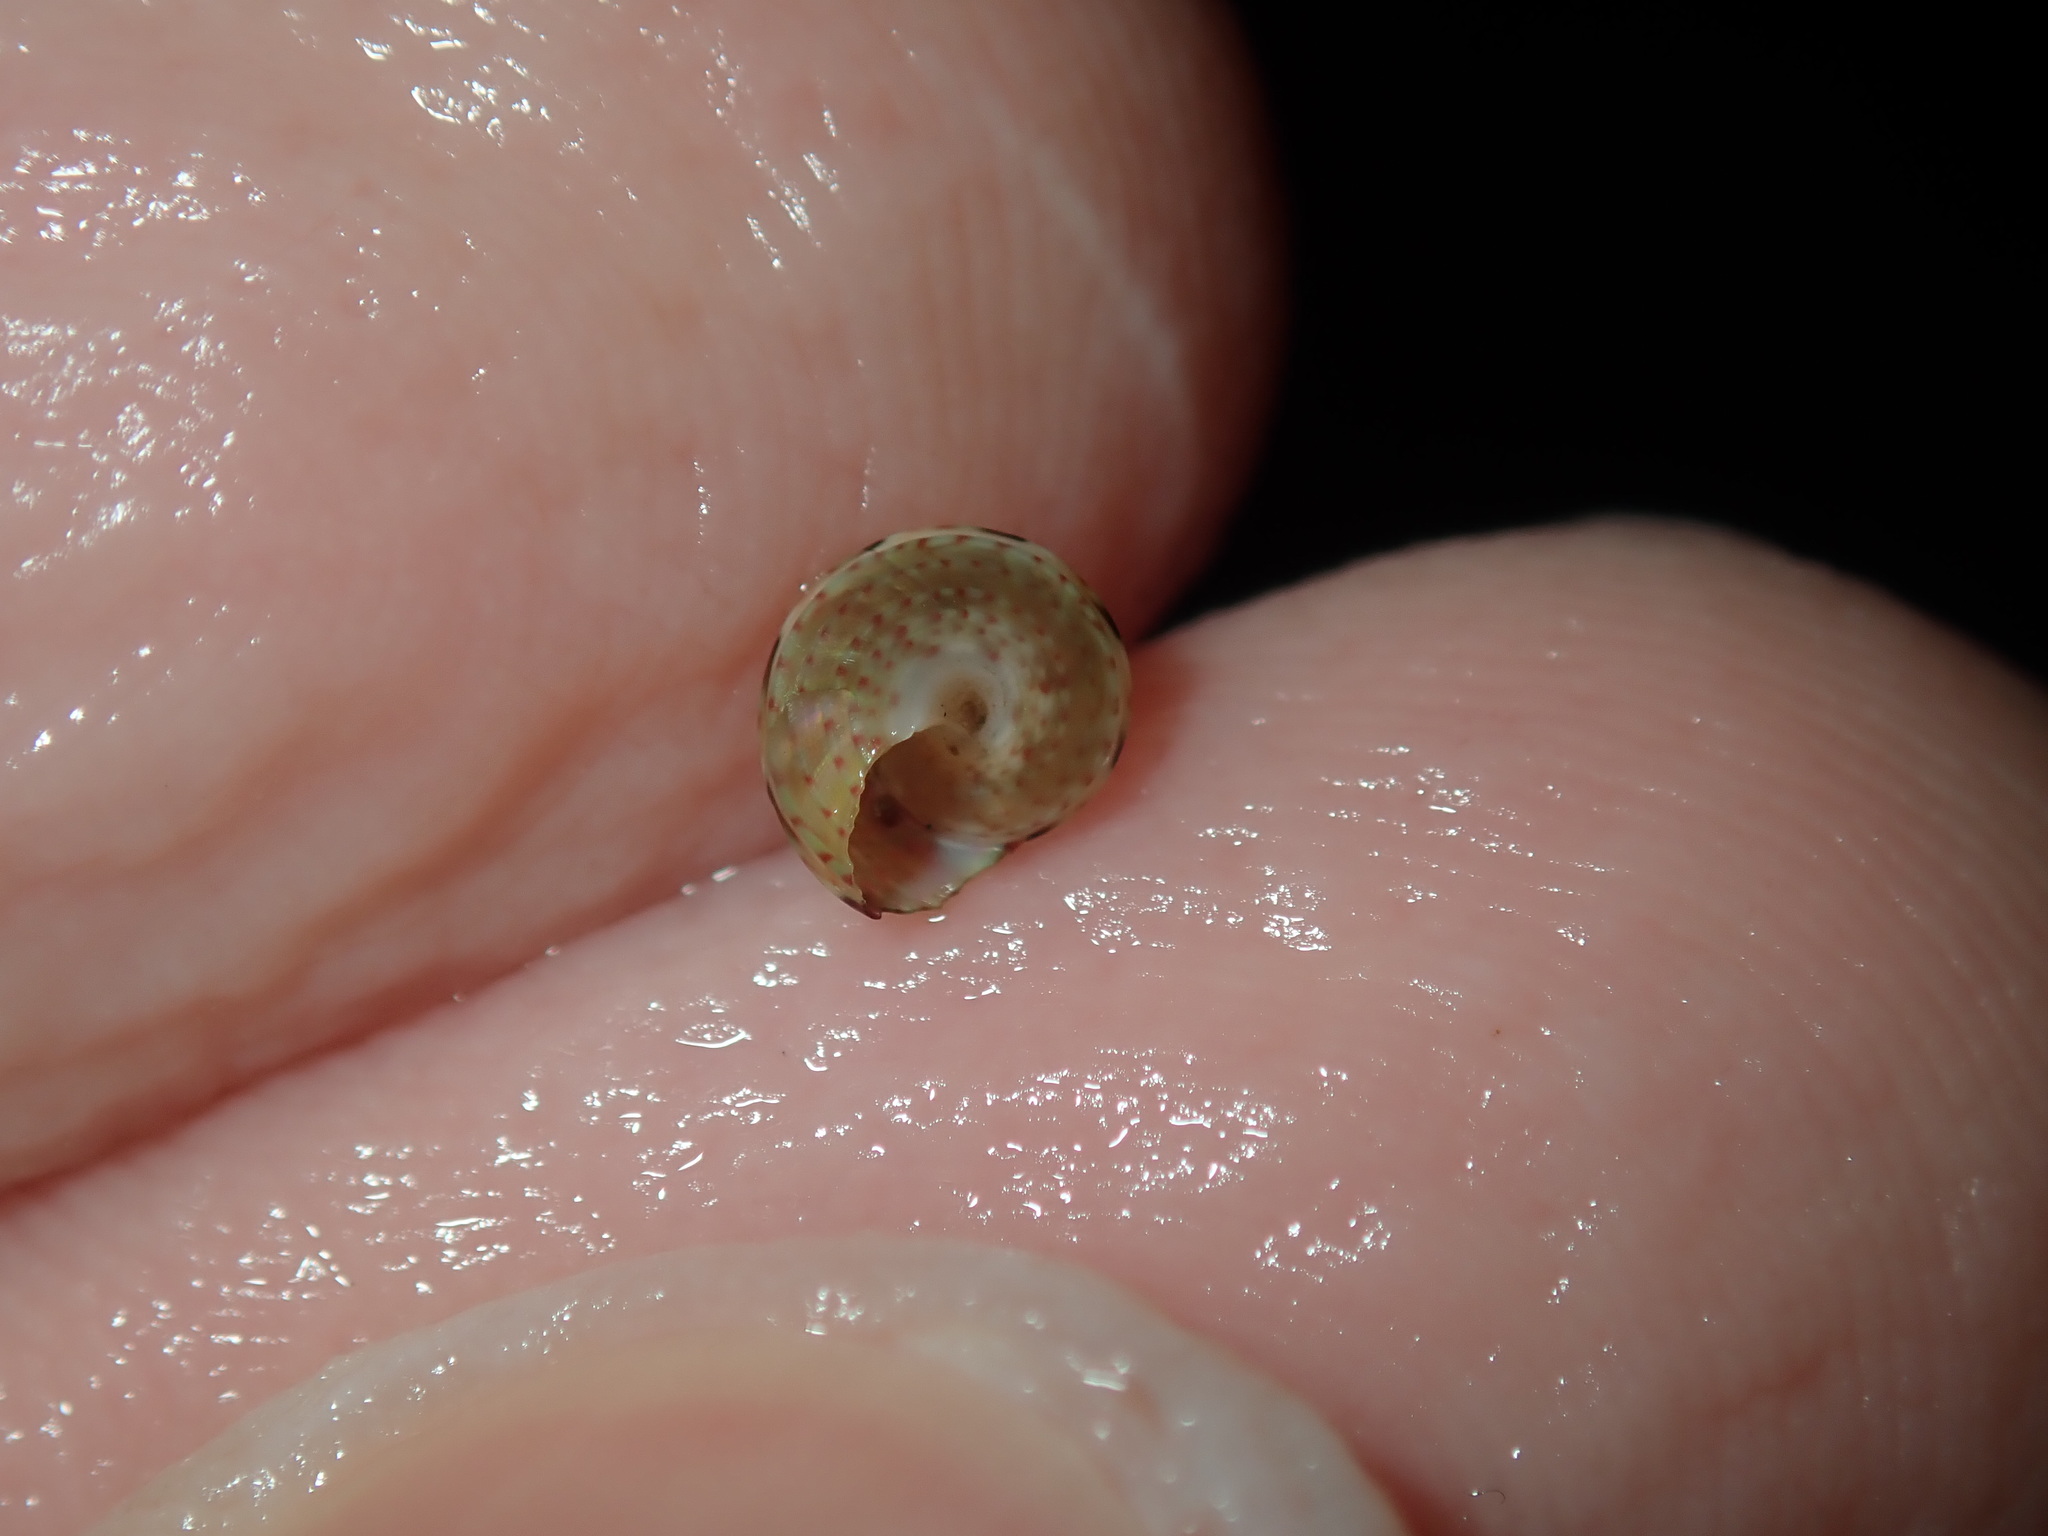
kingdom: Animalia
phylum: Mollusca
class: Gastropoda
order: Trochida
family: Trochidae
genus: Cantharidella
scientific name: Cantharidella picturata
